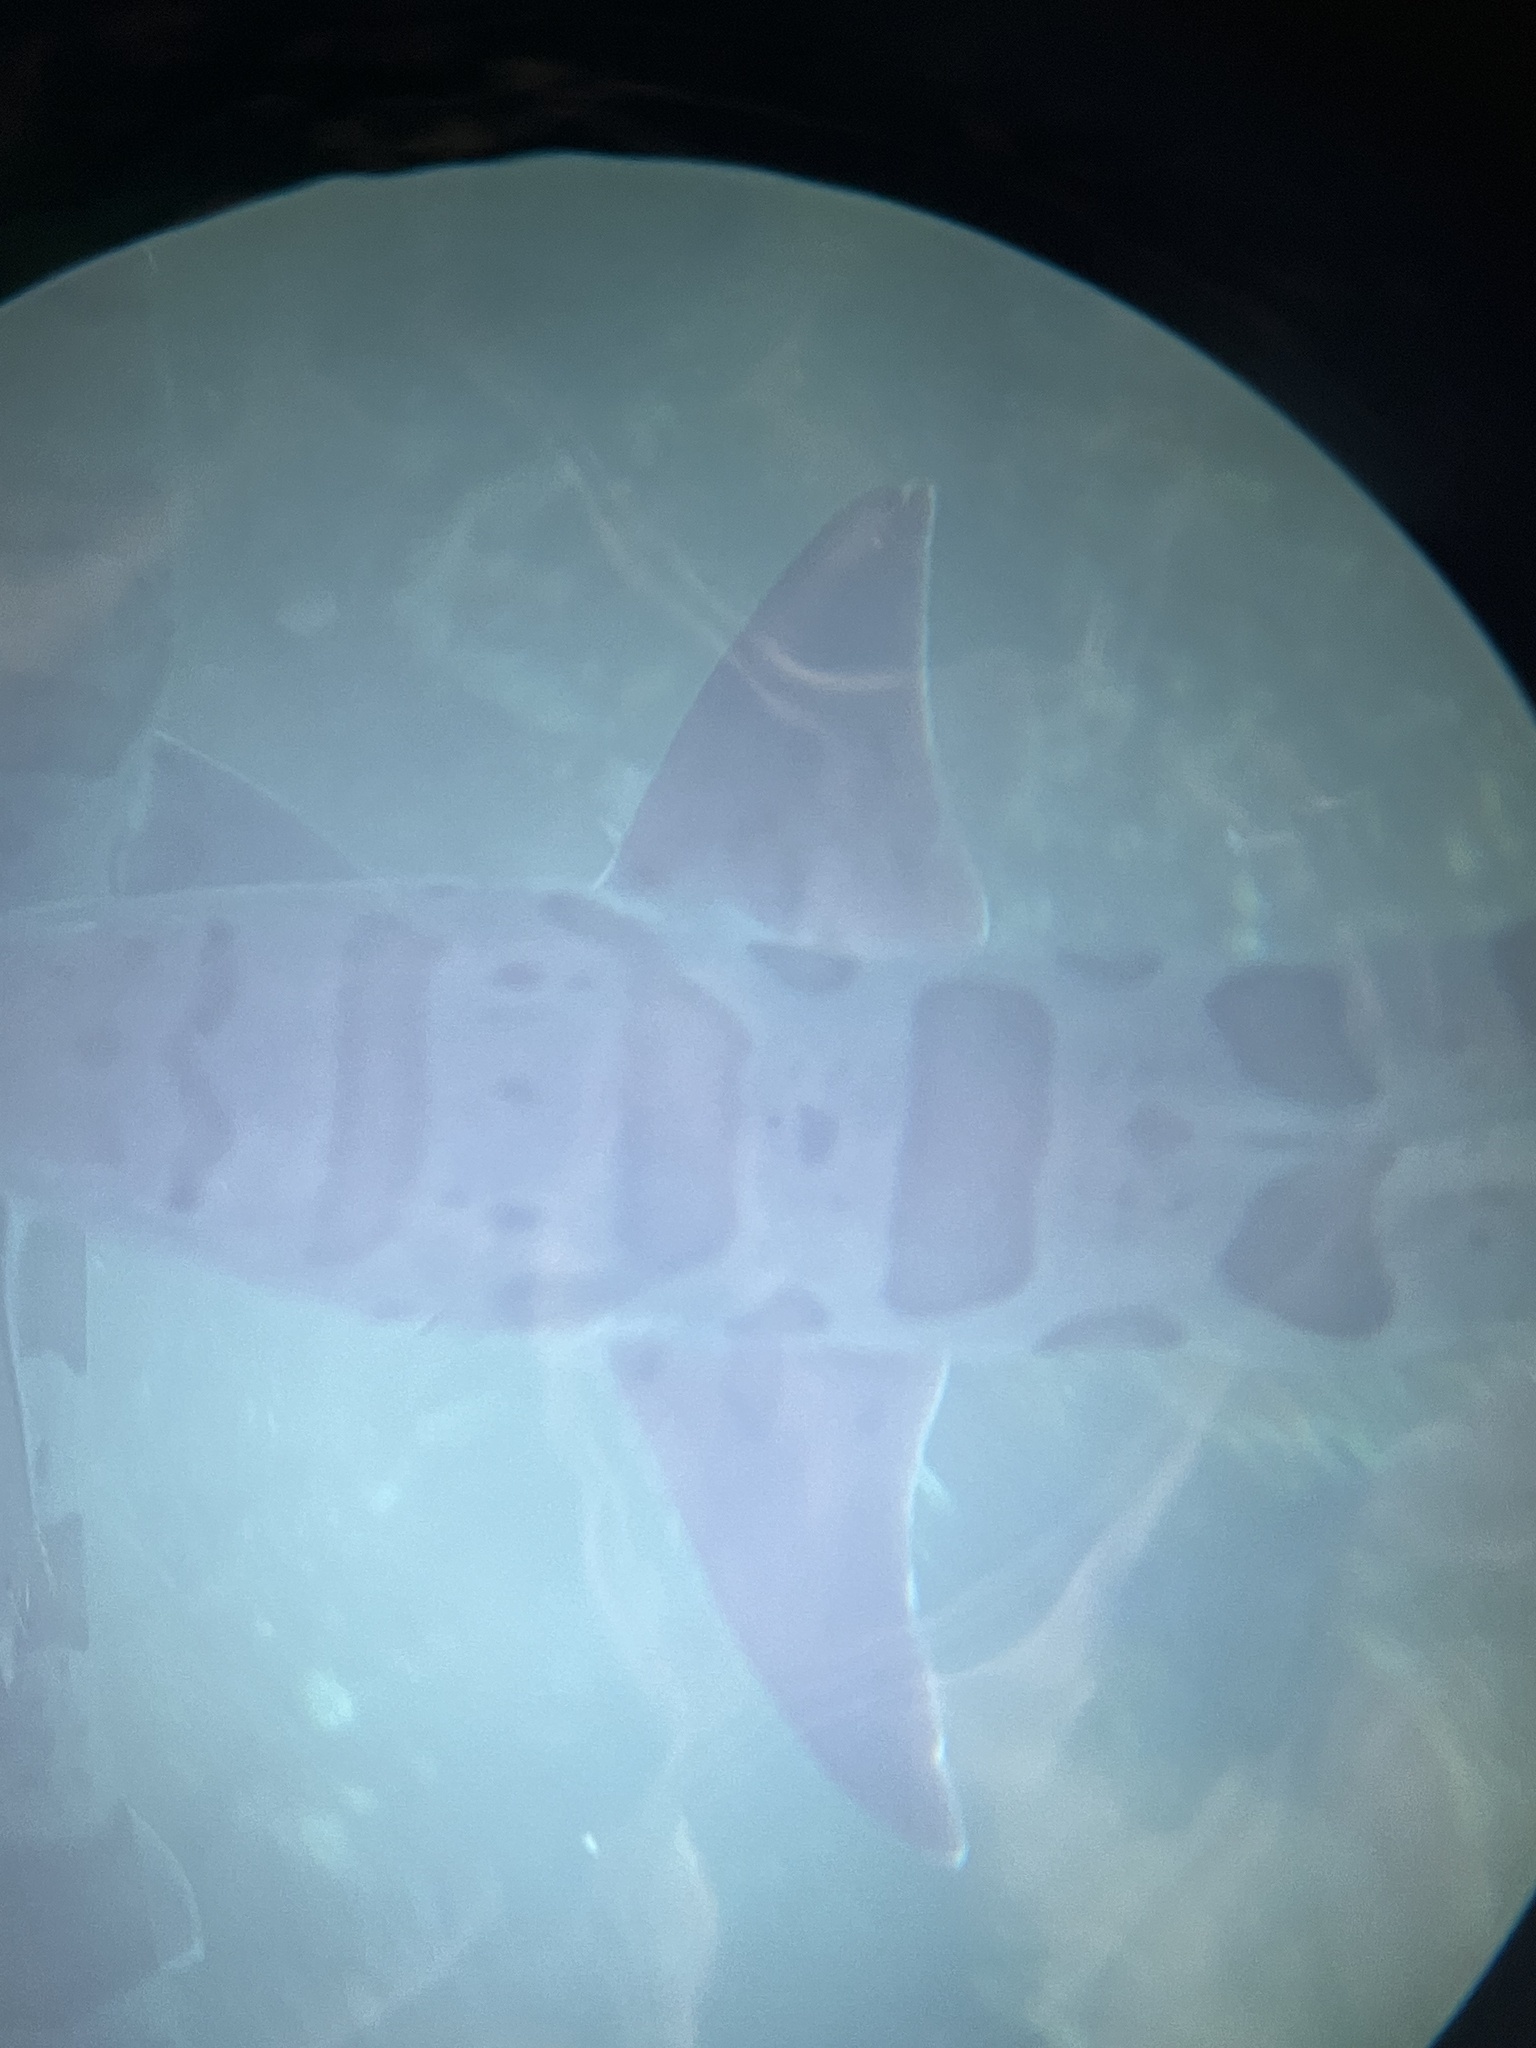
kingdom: Animalia
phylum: Chordata
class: Elasmobranchii
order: Carcharhiniformes
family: Triakidae
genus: Triakis
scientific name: Triakis semifasciata
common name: Leopard shark
